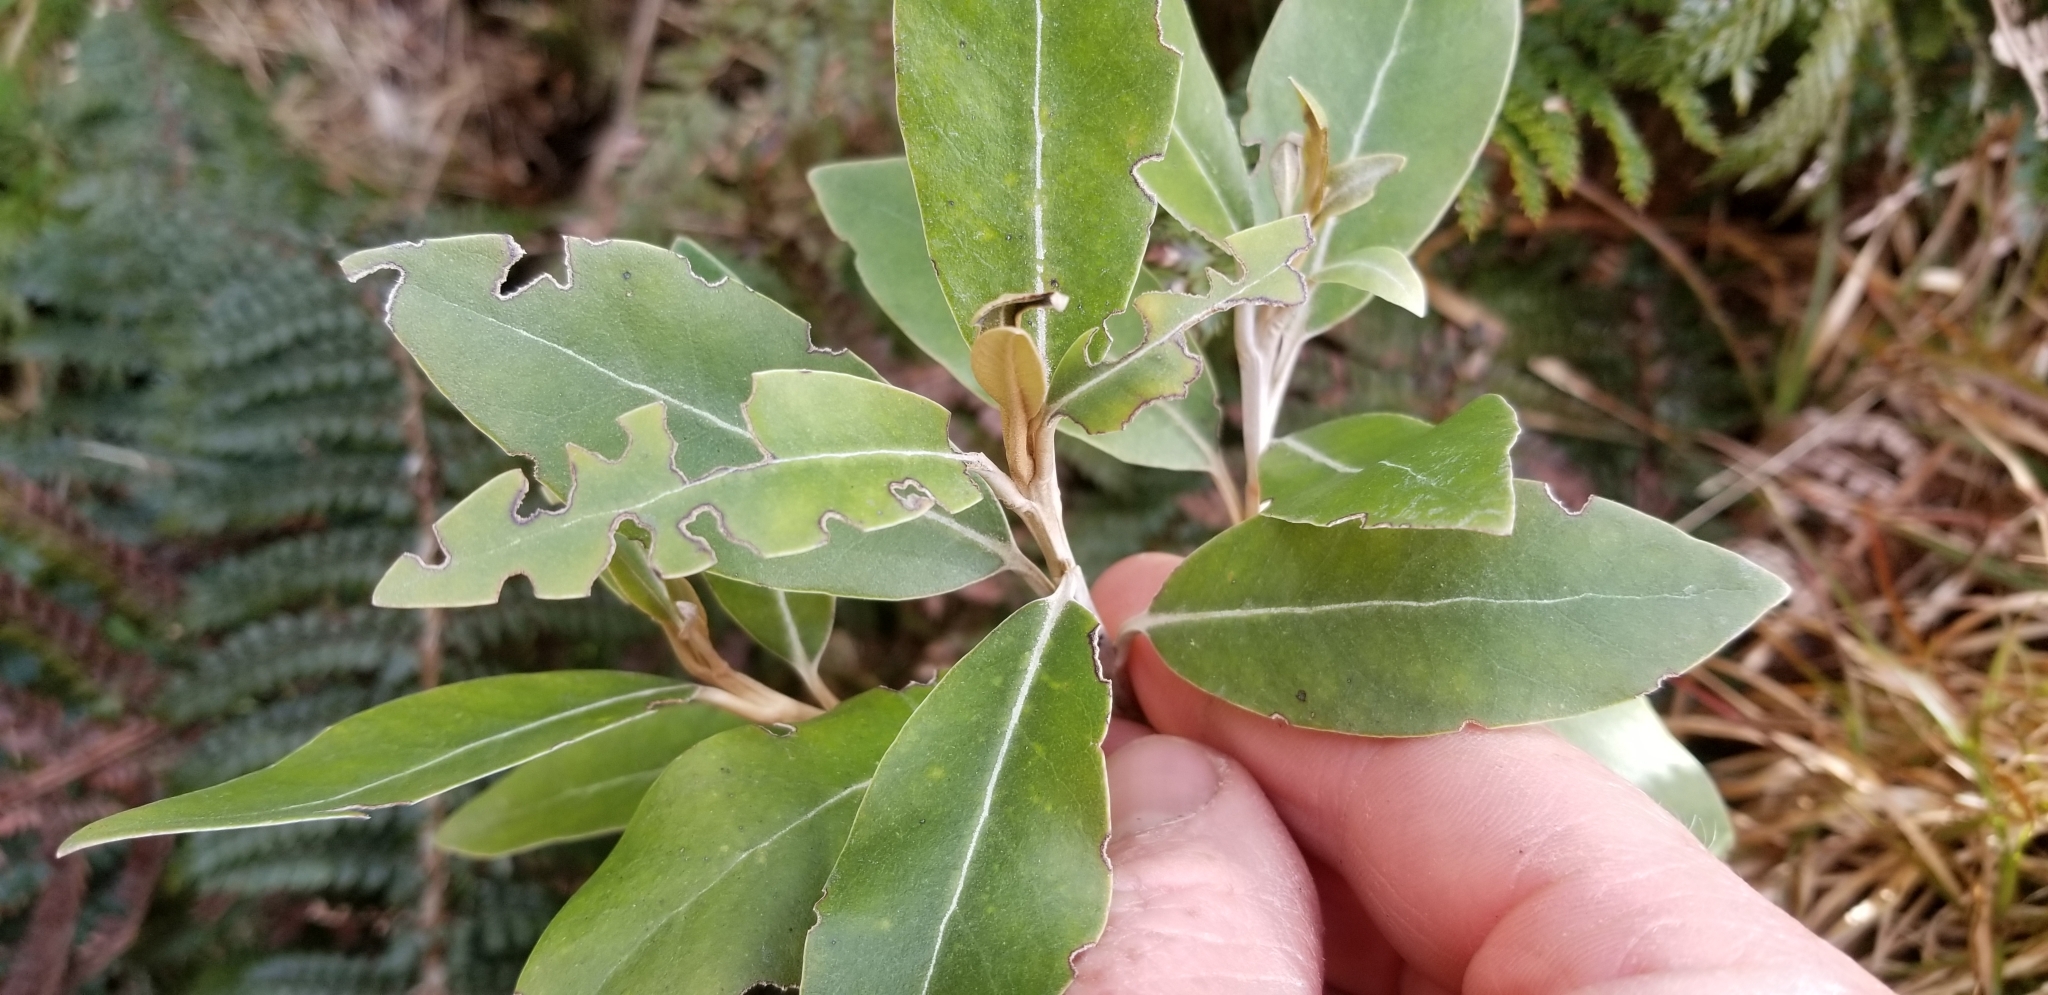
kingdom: Plantae
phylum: Tracheophyta
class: Magnoliopsida
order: Asterales
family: Asteraceae
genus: Olearia
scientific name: Olearia avicenniifolia
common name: Mangrove-leaf daisybush
